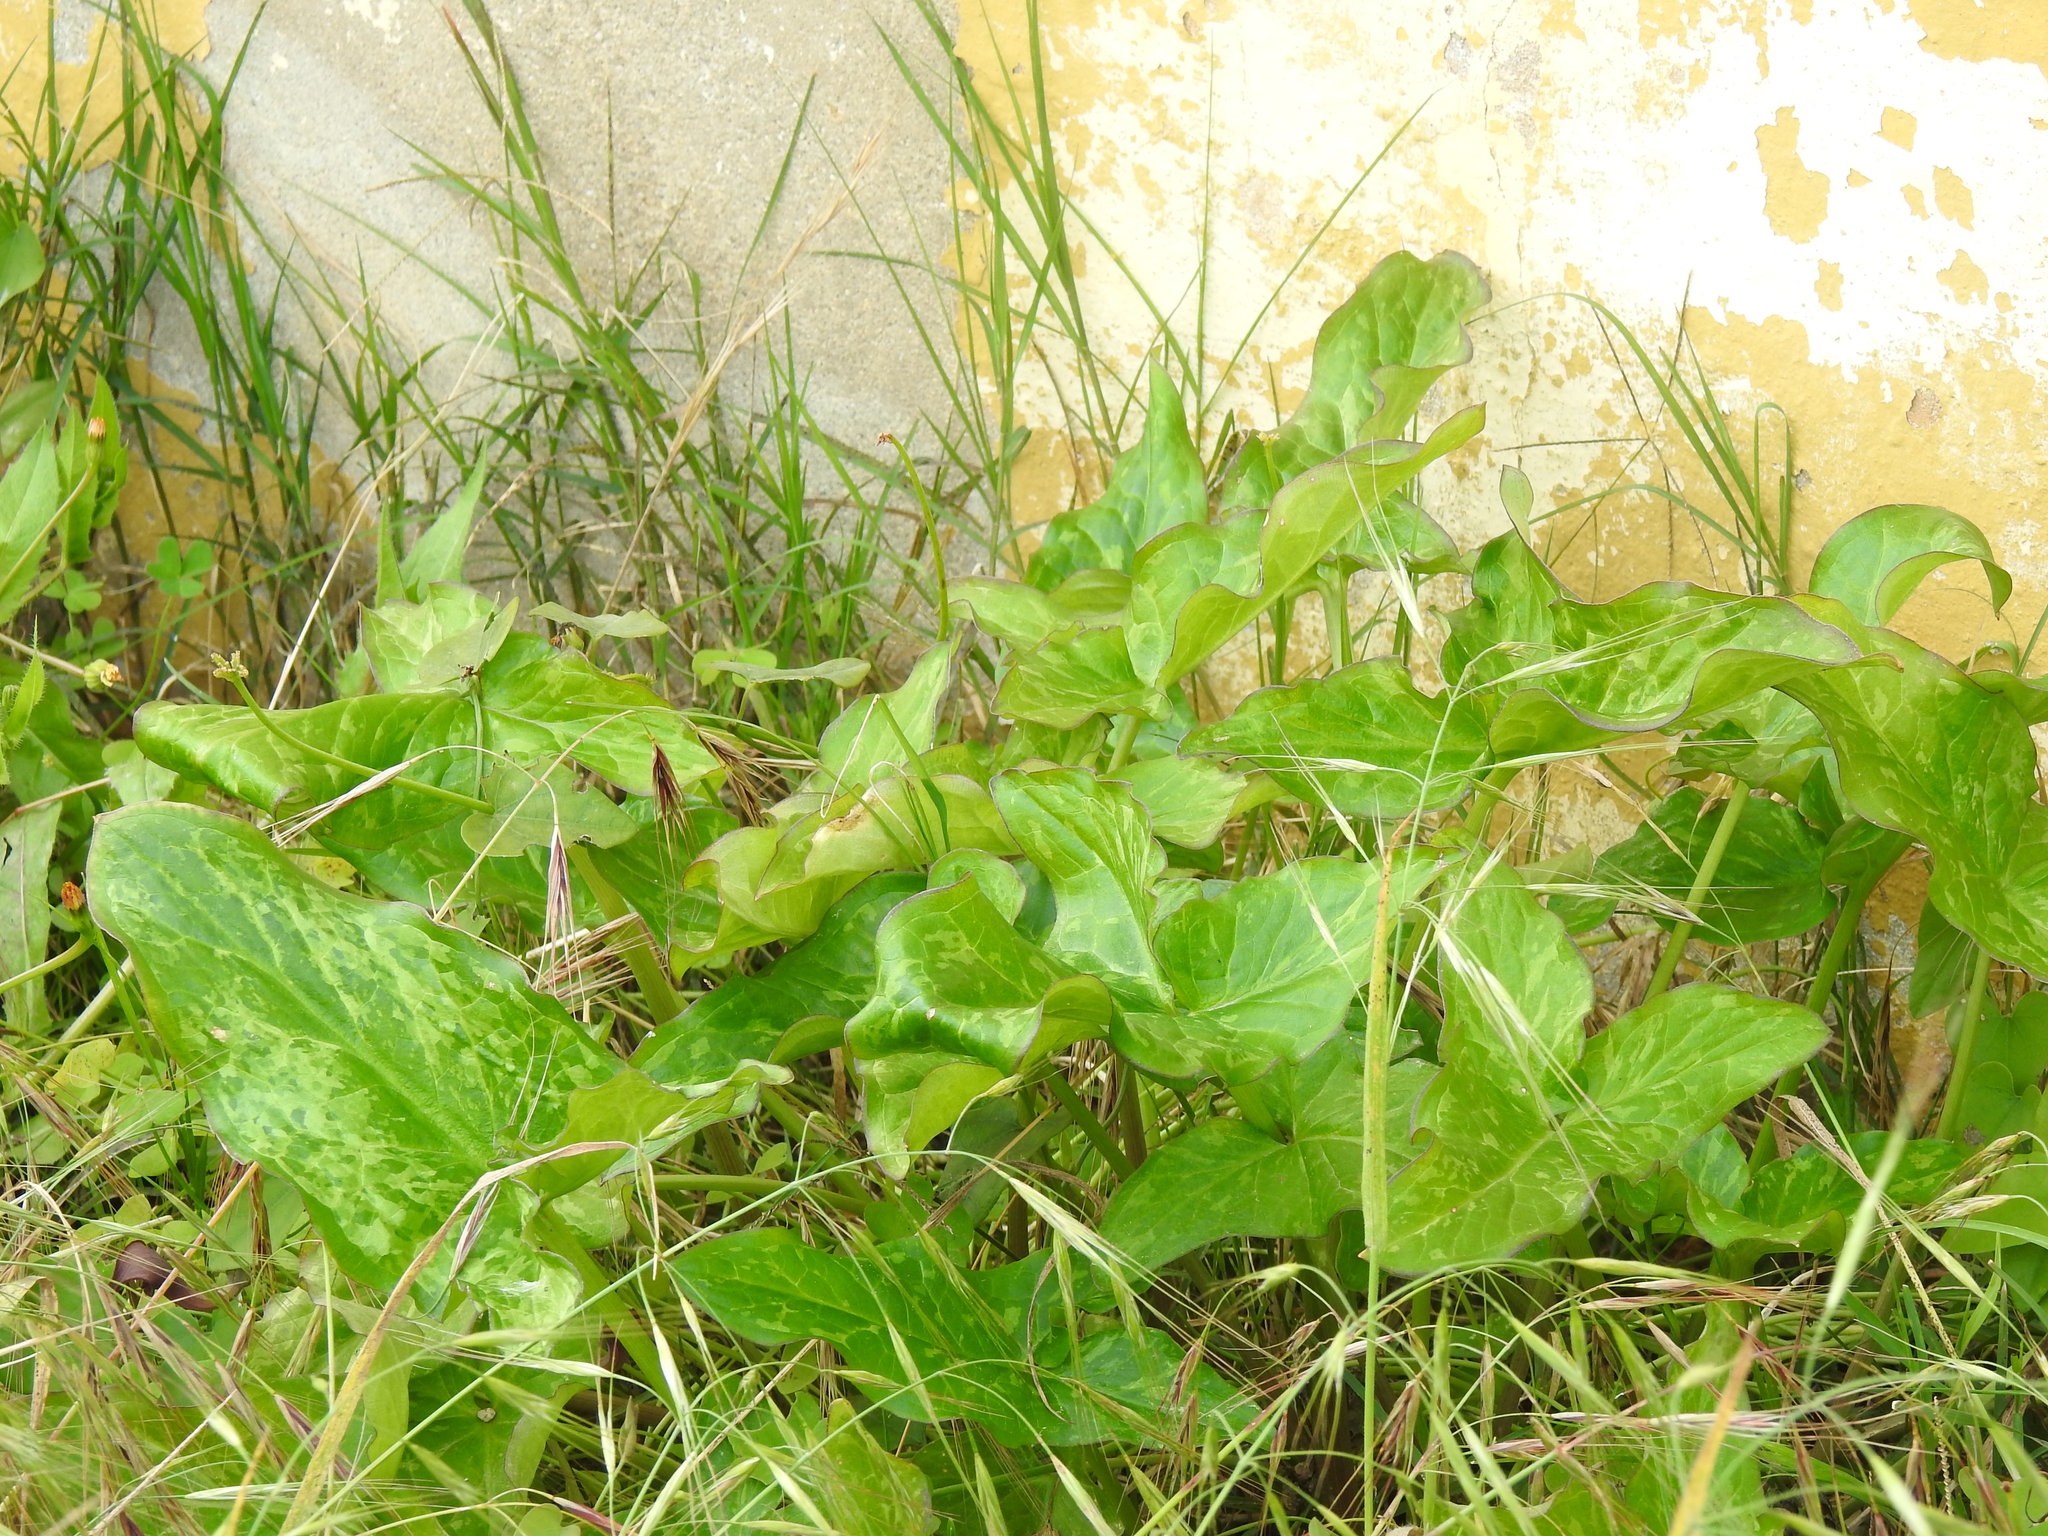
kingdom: Plantae
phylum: Tracheophyta
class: Liliopsida
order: Alismatales
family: Araceae
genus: Arum
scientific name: Arum italicum
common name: Italian lords-and-ladies
